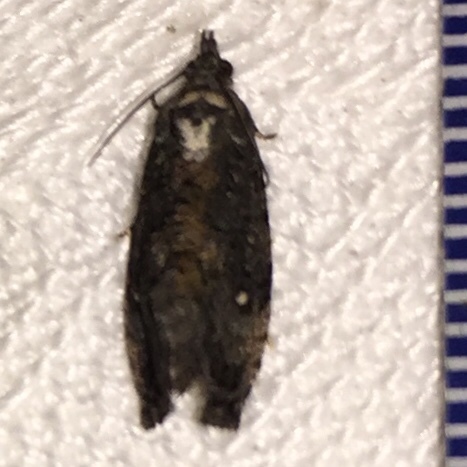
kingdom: Animalia
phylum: Arthropoda
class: Insecta
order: Lepidoptera
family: Tortricidae
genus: Gymnandrosoma
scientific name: Gymnandrosoma punctidiscanum
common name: Dotted ecdytolopha moth
